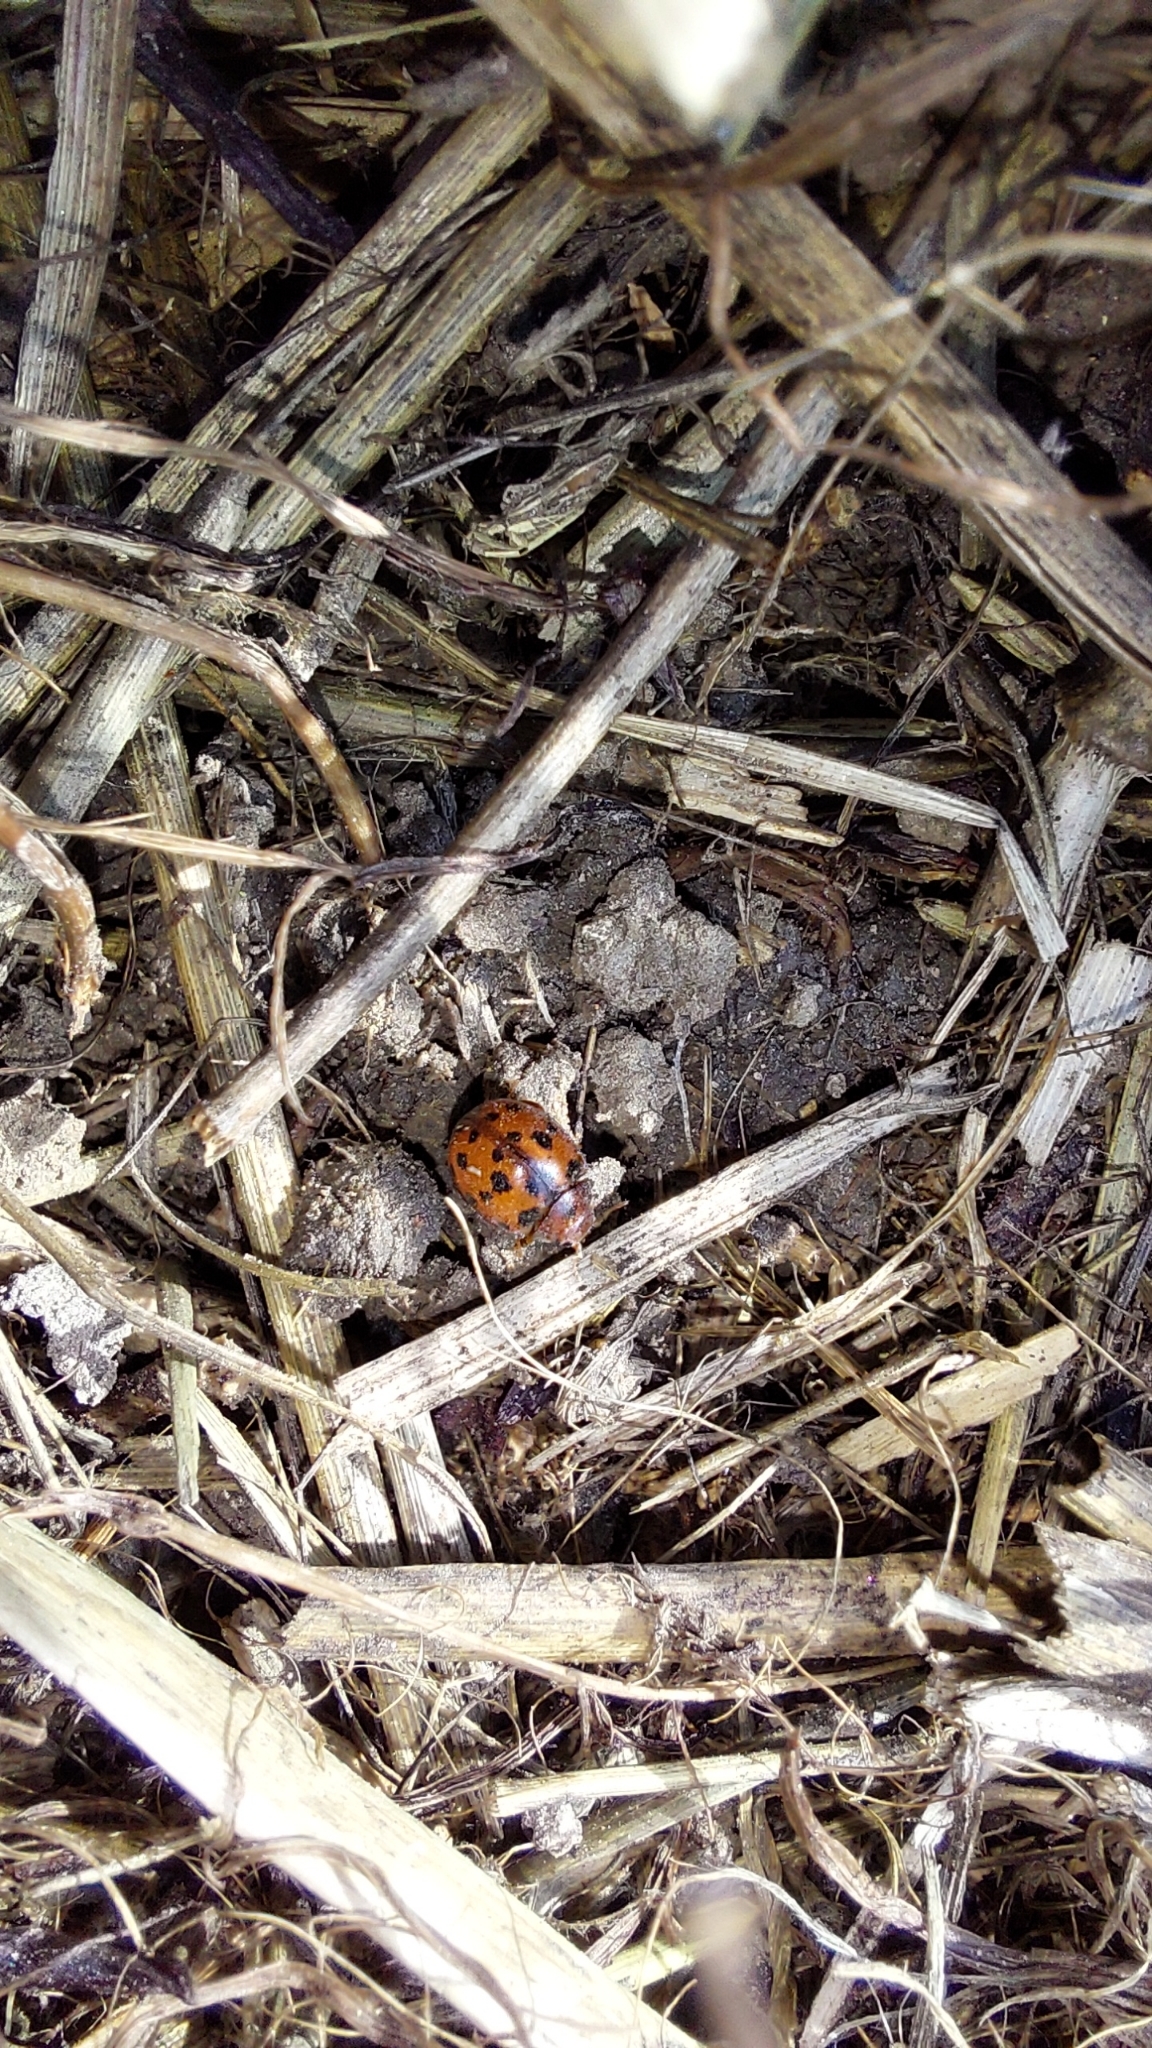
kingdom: Animalia
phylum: Arthropoda
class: Insecta
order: Coleoptera
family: Coccinellidae
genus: Subcoccinella
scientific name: Subcoccinella vigintiquatuorpunctata
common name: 24-spot ladybird
